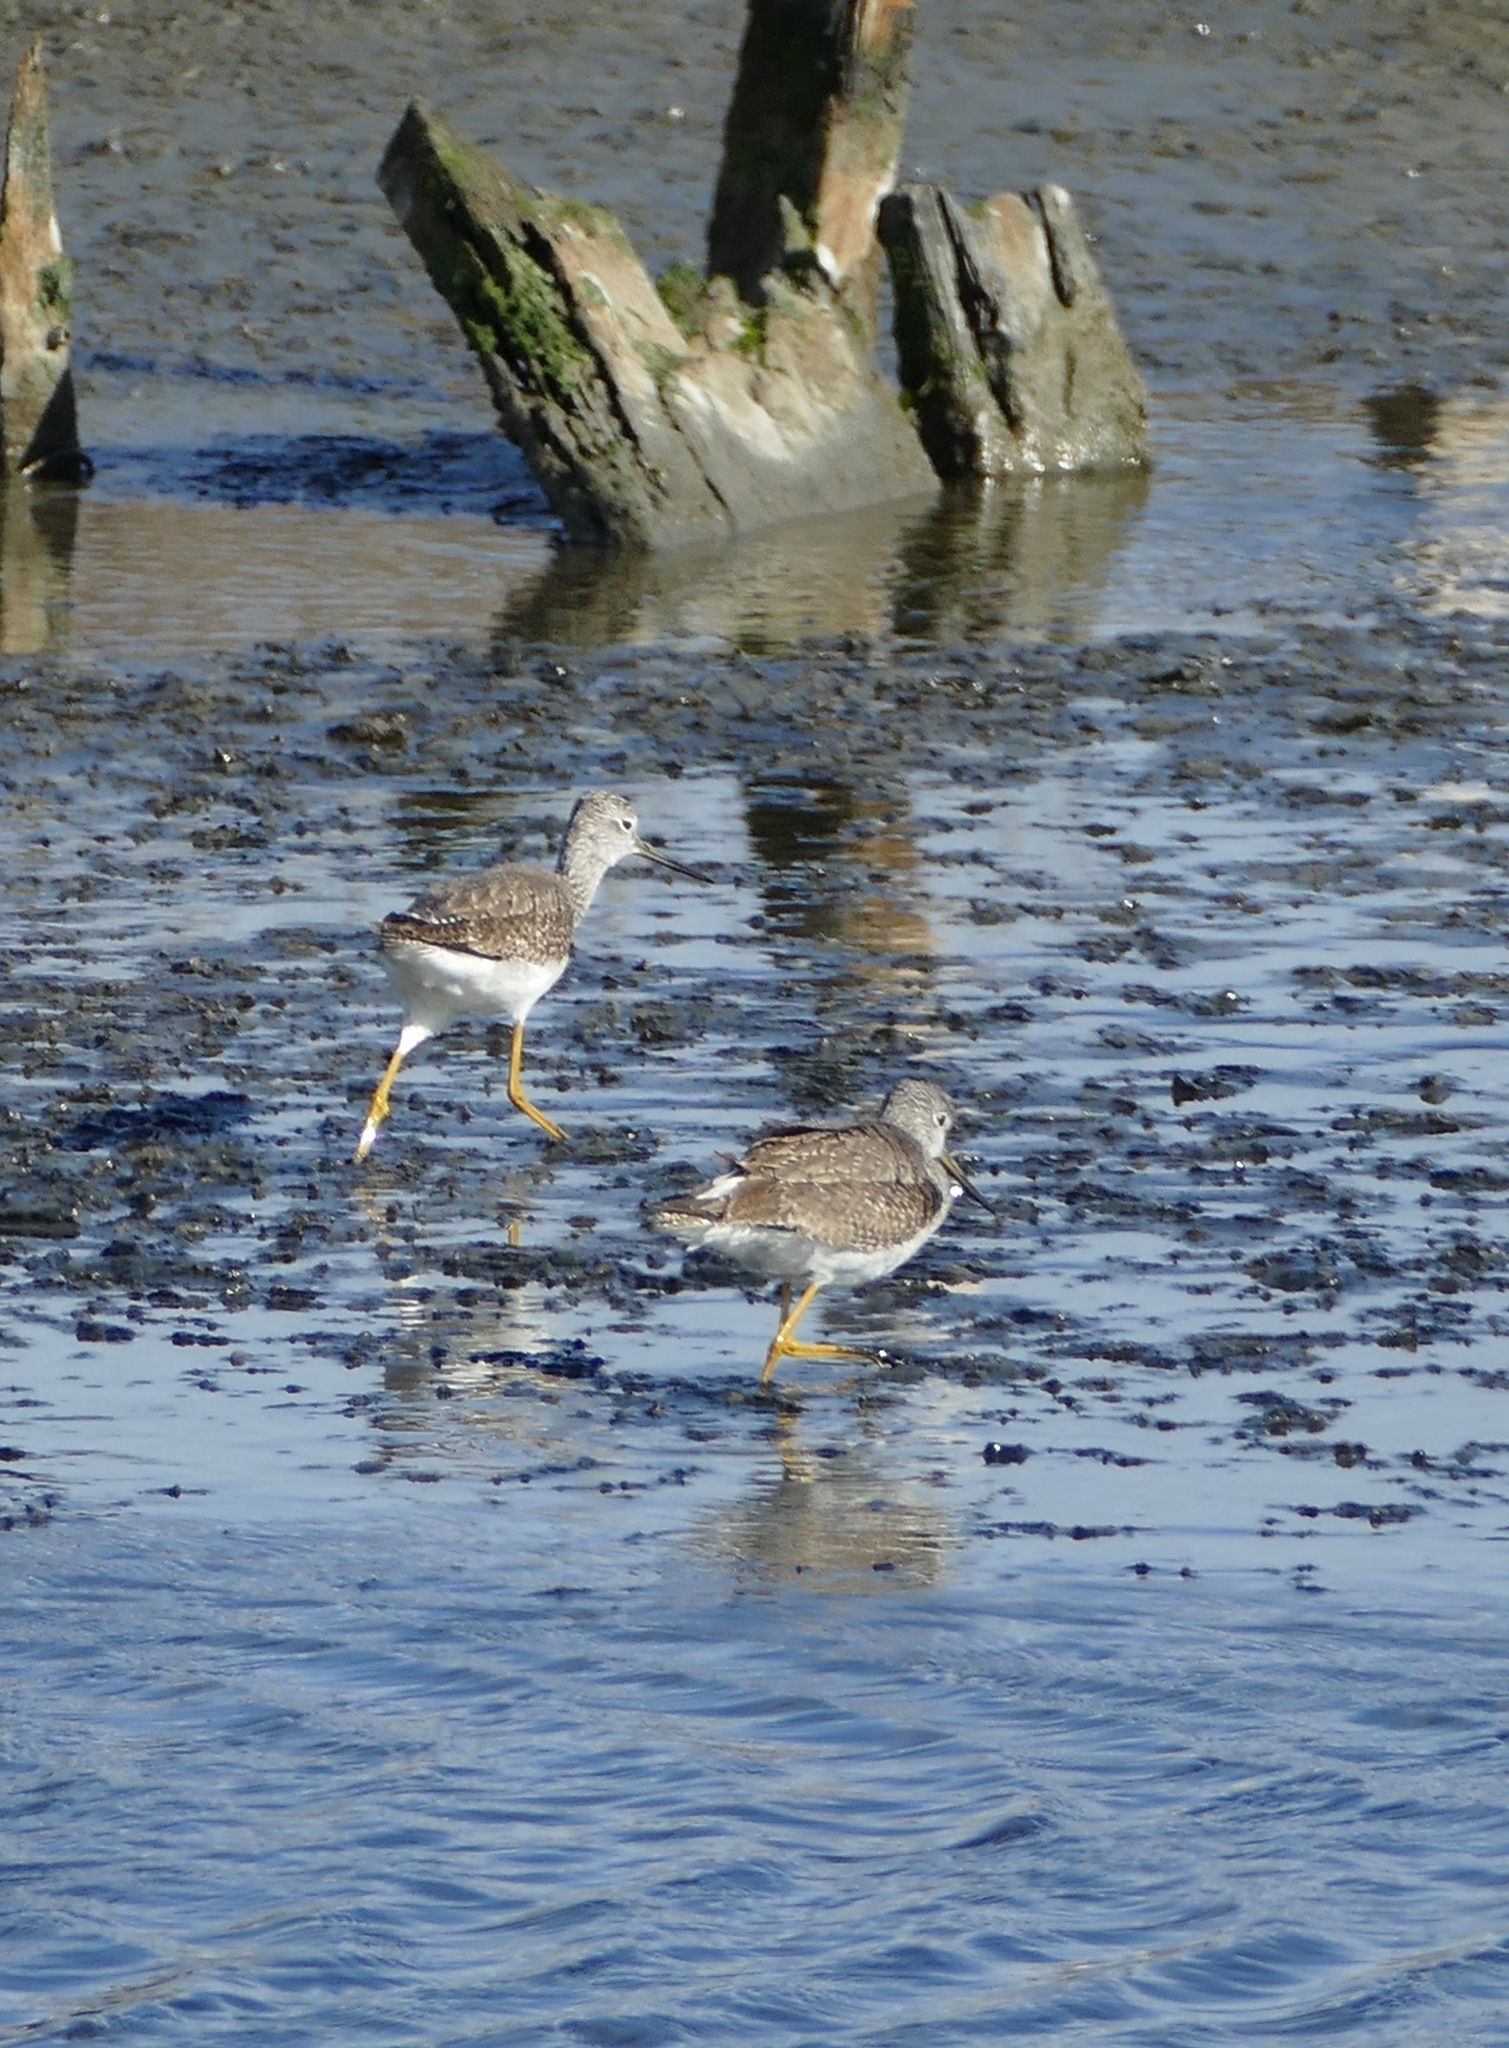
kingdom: Animalia
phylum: Chordata
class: Aves
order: Charadriiformes
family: Scolopacidae
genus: Tringa
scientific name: Tringa melanoleuca
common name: Greater yellowlegs
